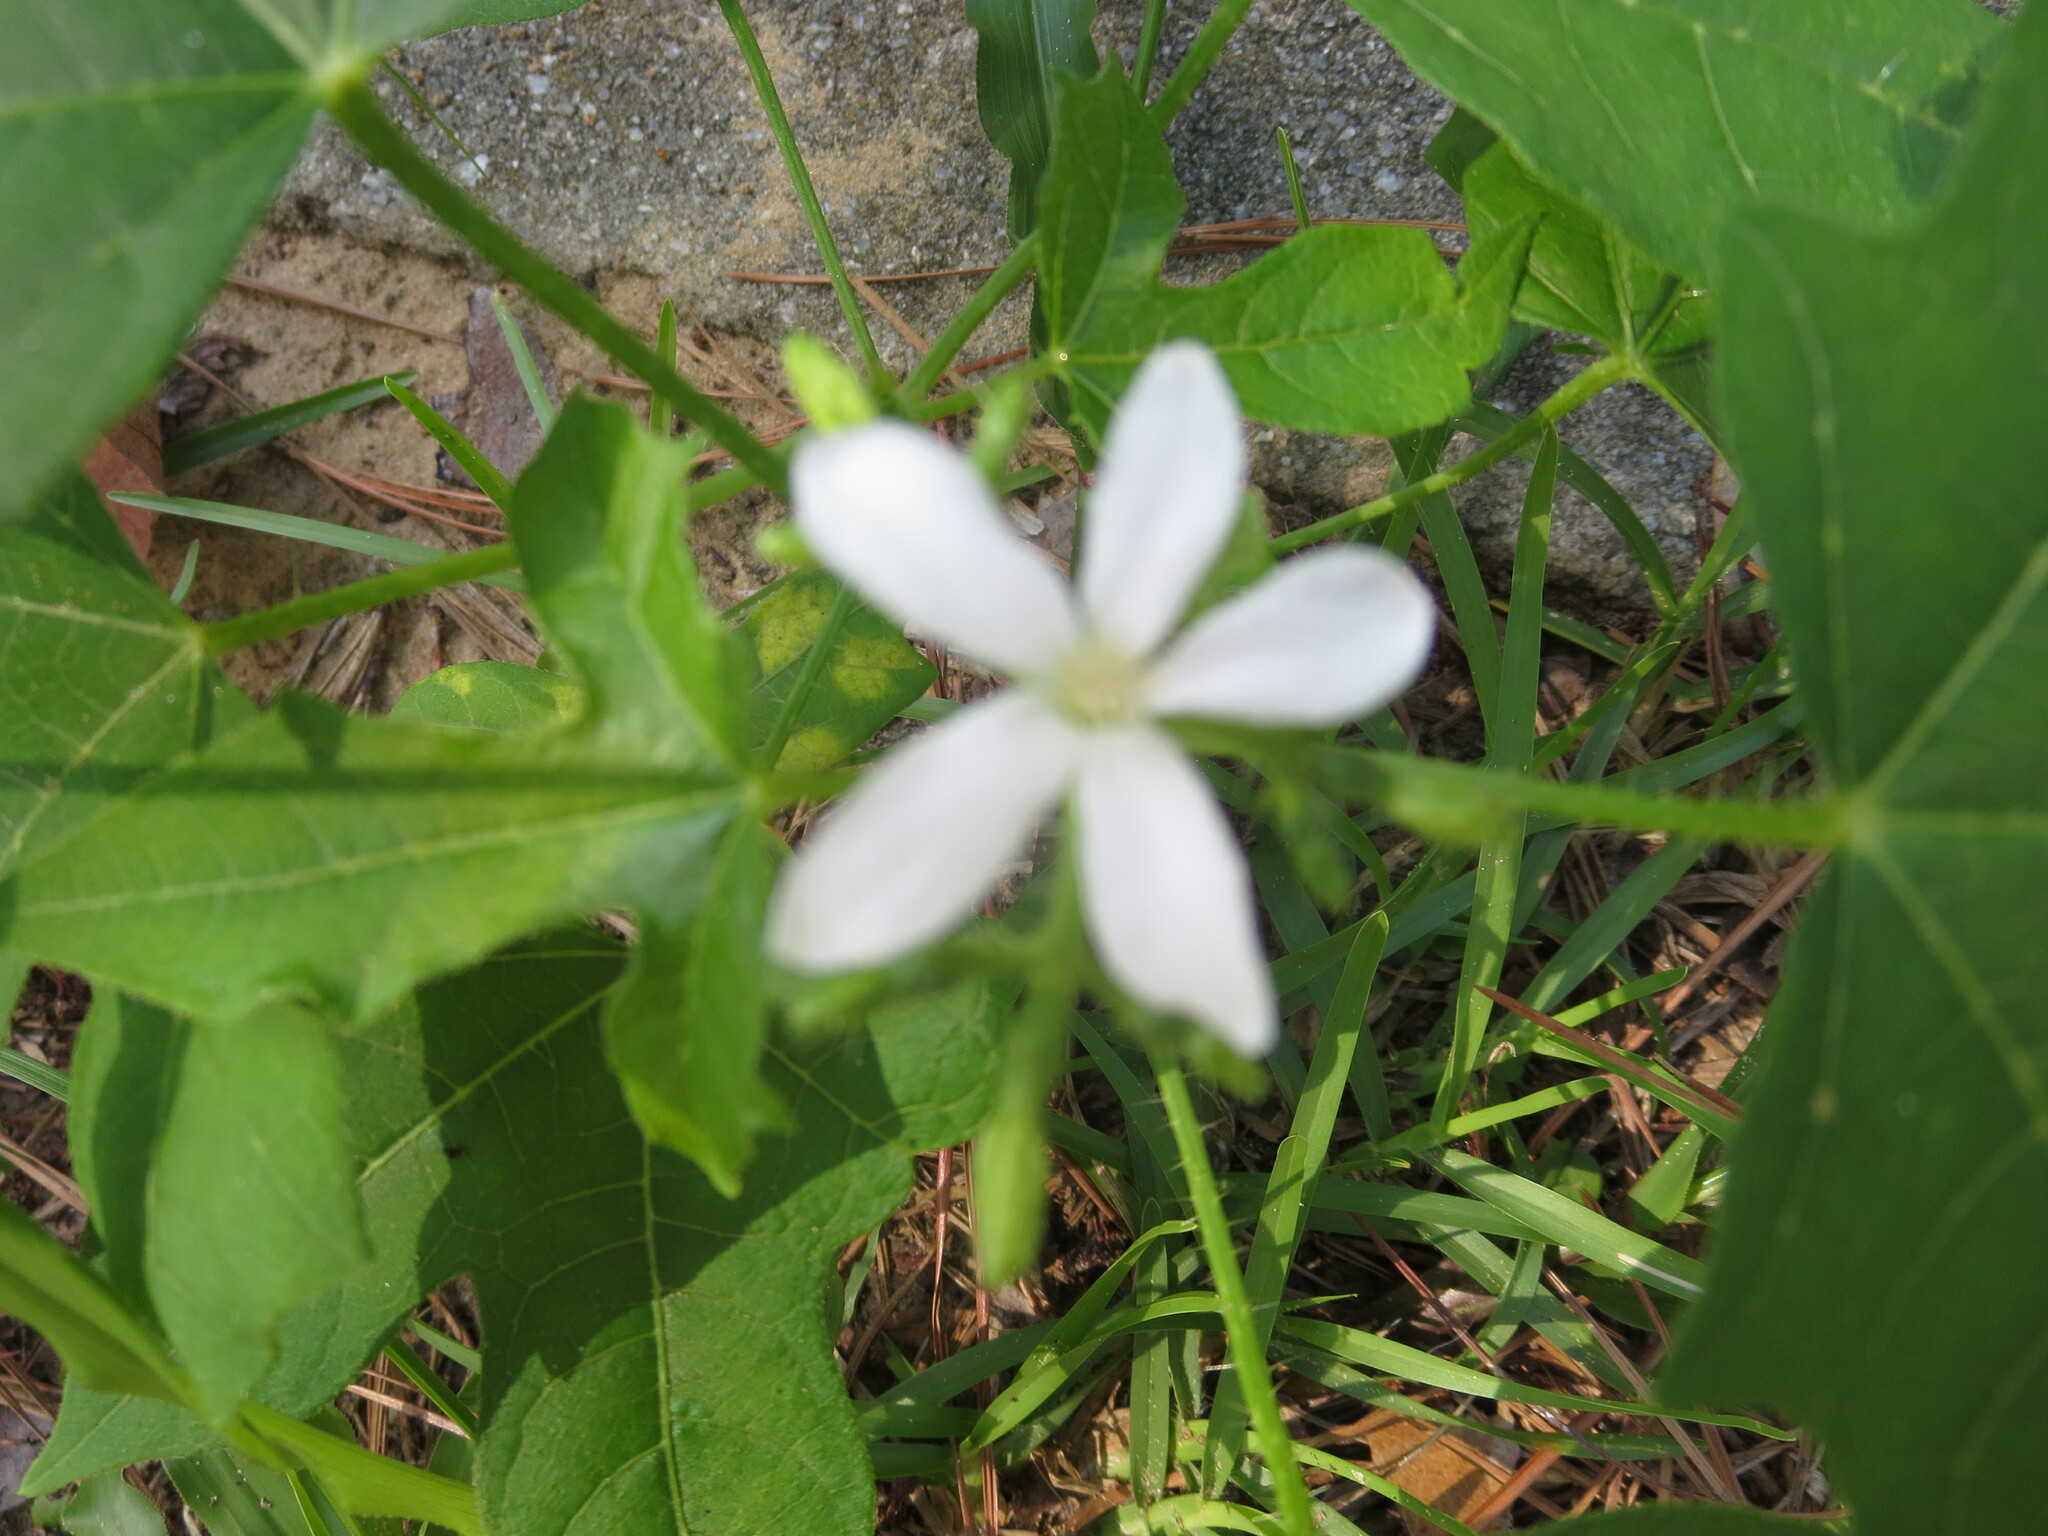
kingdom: Plantae
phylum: Tracheophyta
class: Magnoliopsida
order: Malpighiales
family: Euphorbiaceae
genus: Cnidoscolus
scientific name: Cnidoscolus stimulosus
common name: Bull-nettle
